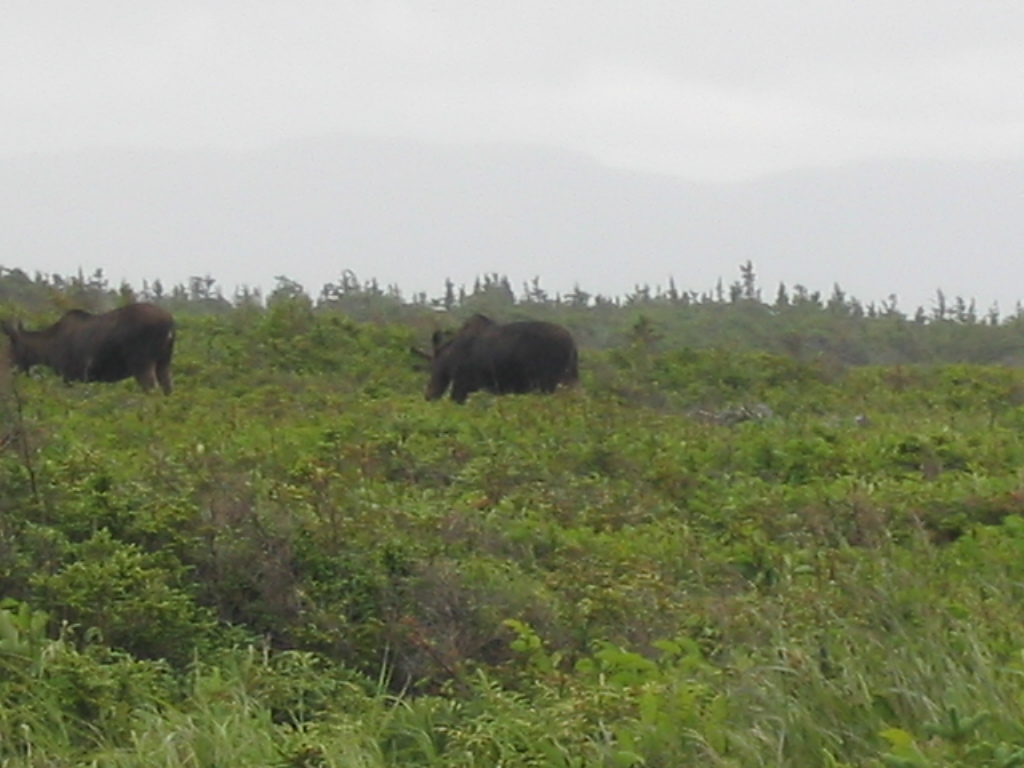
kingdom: Animalia
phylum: Chordata
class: Mammalia
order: Artiodactyla
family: Cervidae
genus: Alces
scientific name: Alces alces
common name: Moose
